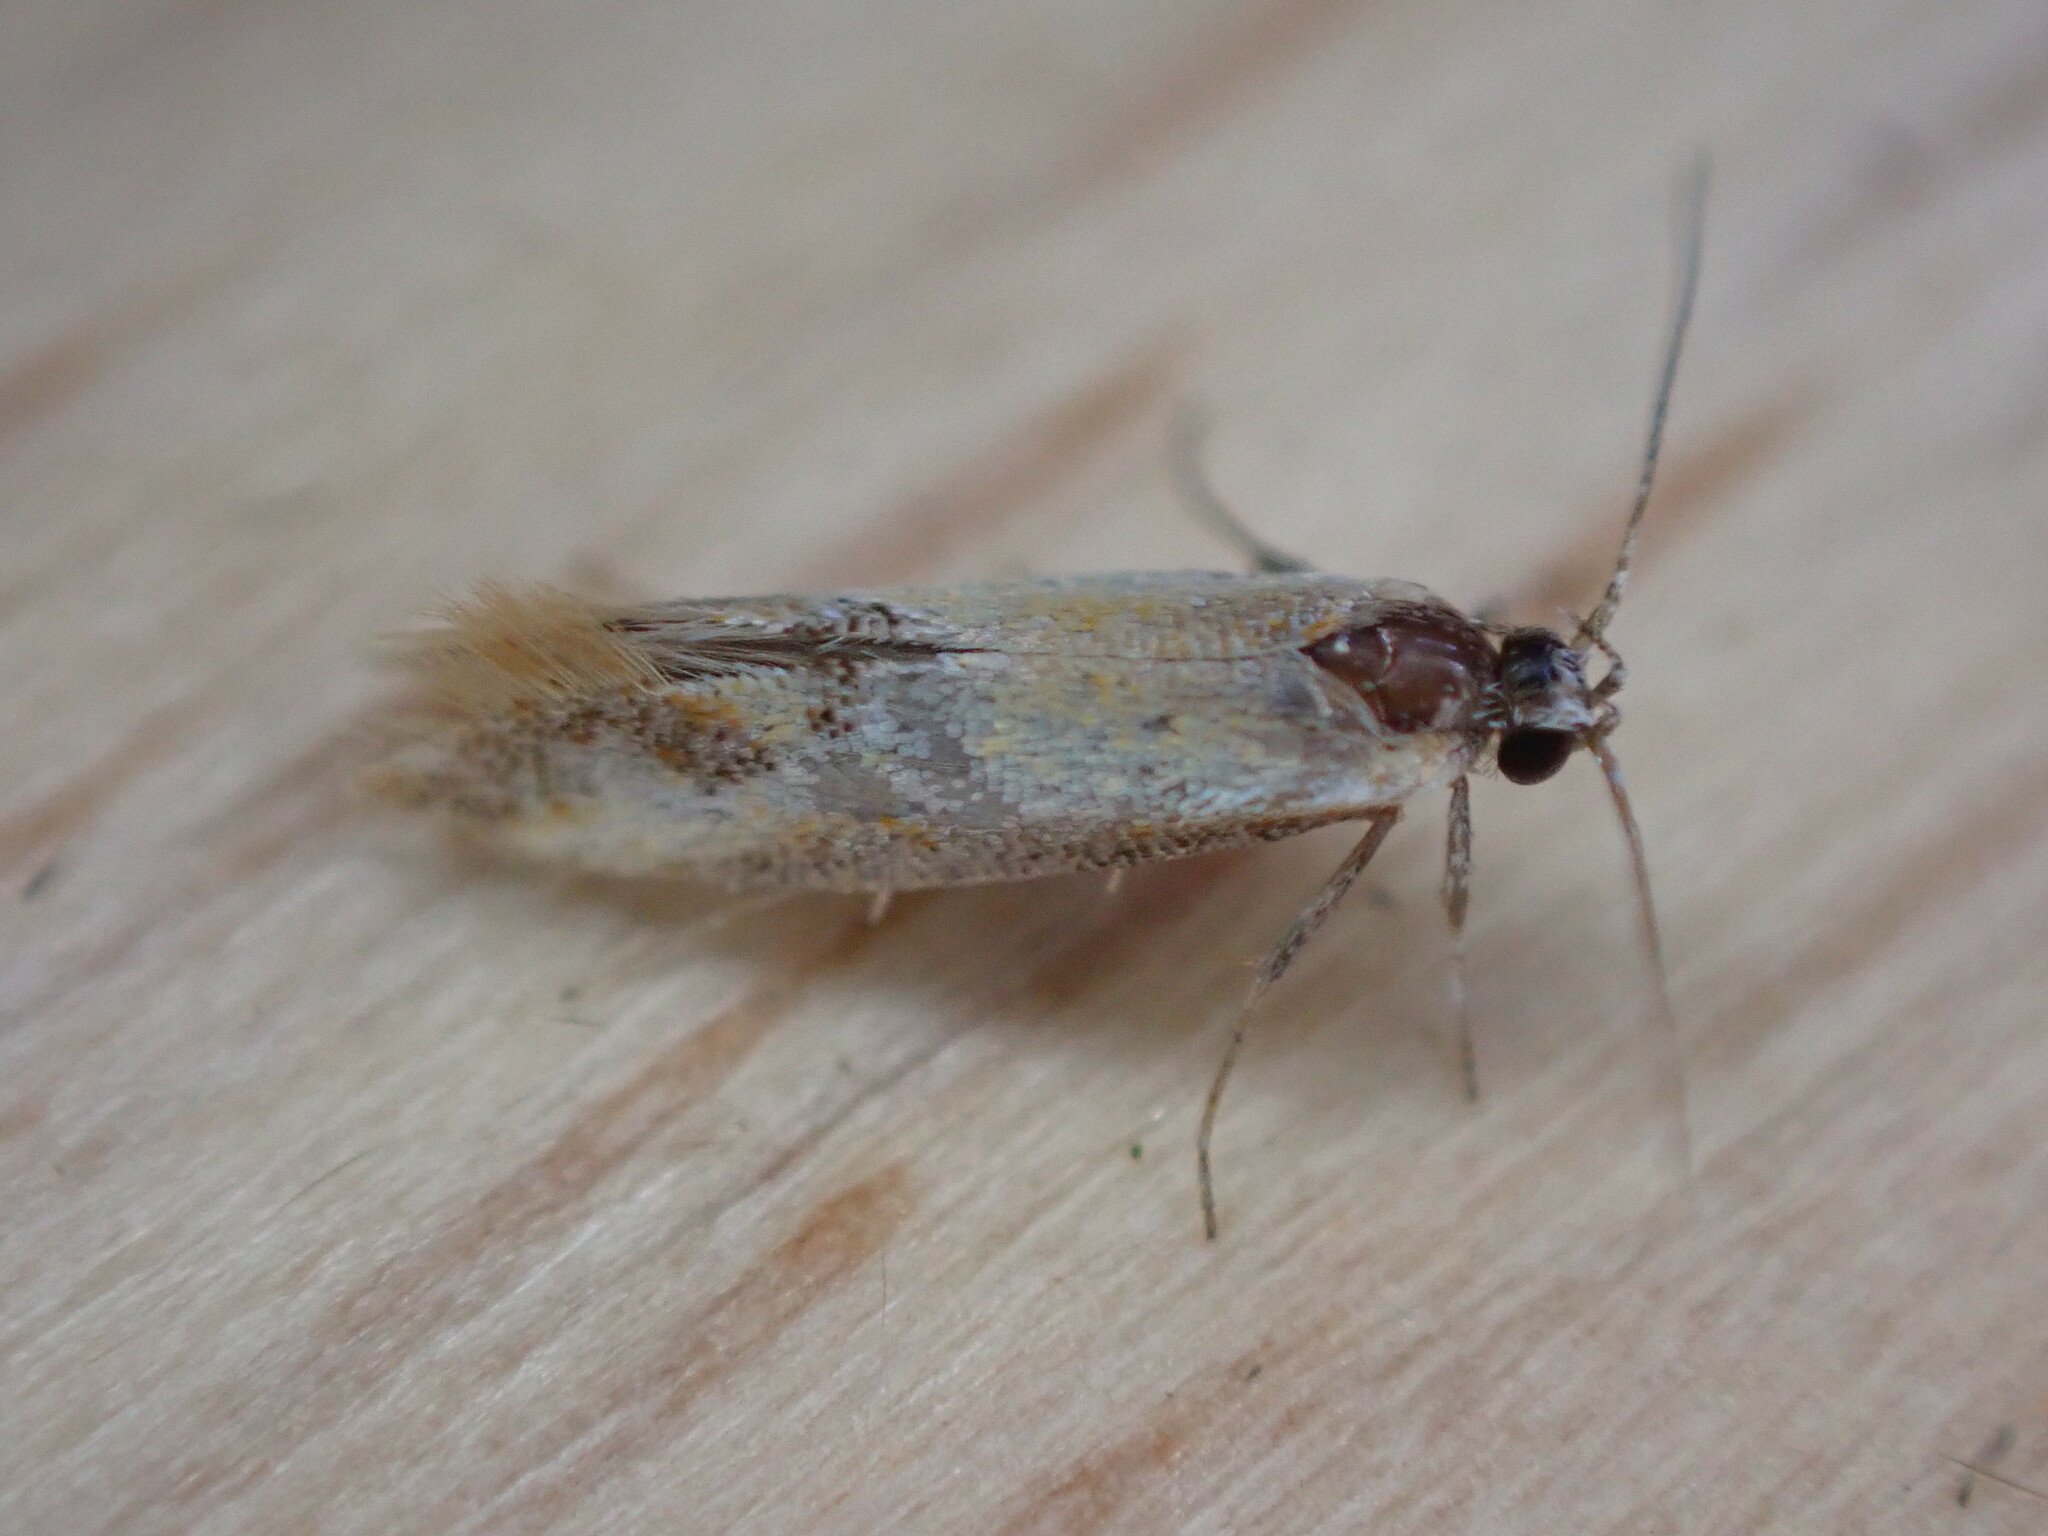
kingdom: Animalia
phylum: Arthropoda
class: Insecta
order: Lepidoptera
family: Oecophoridae
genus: Batia
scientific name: Batia lunaris
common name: Moth
